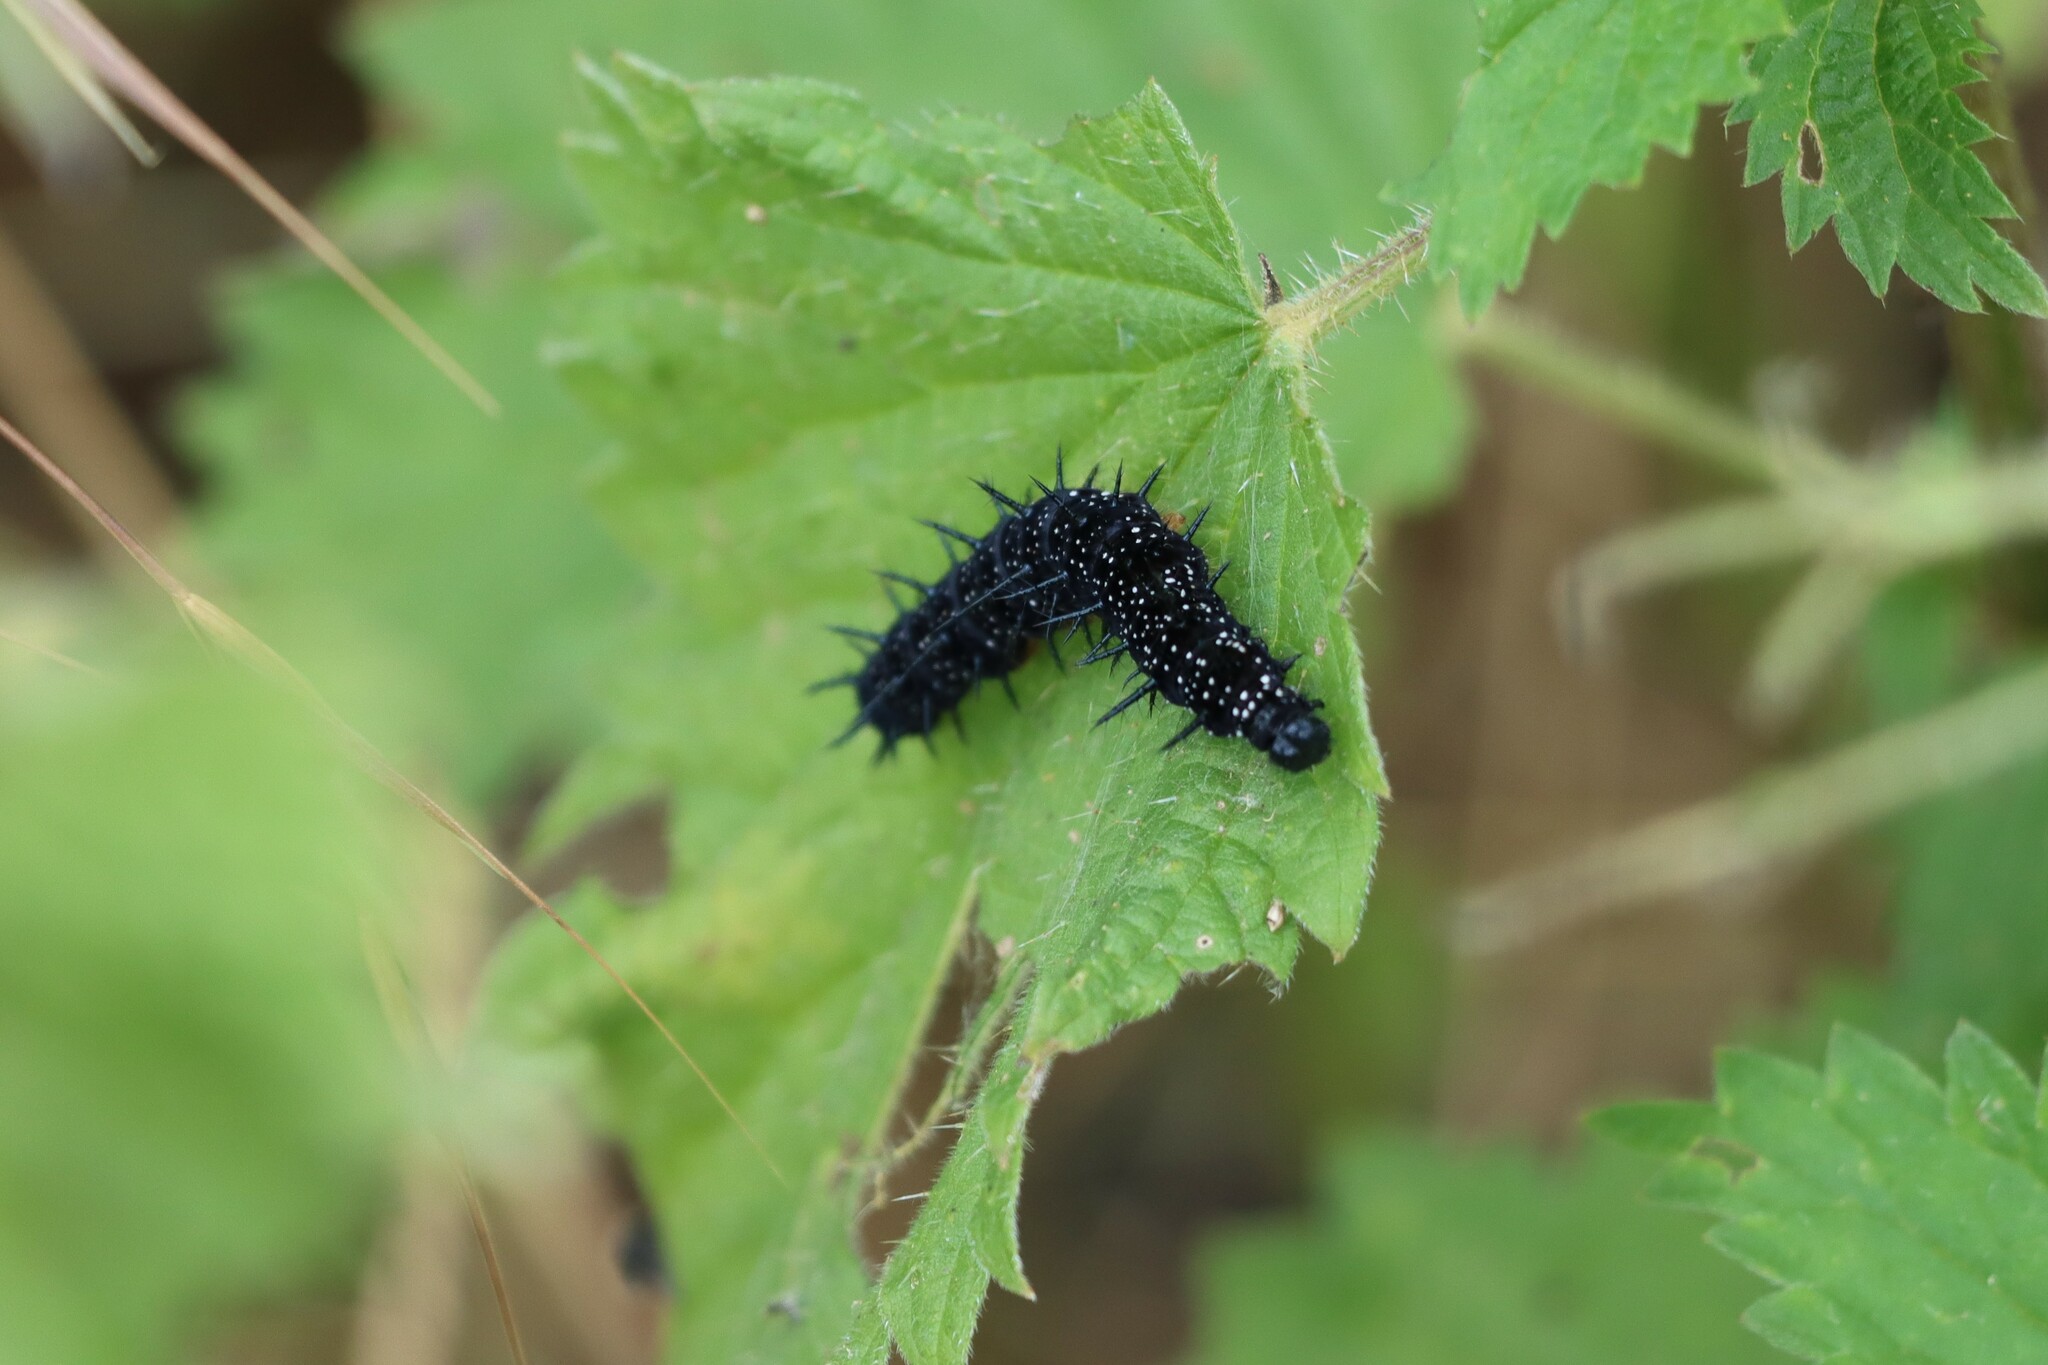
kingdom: Animalia
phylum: Arthropoda
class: Insecta
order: Lepidoptera
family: Nymphalidae
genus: Aglais
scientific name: Aglais io
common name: Peacock
